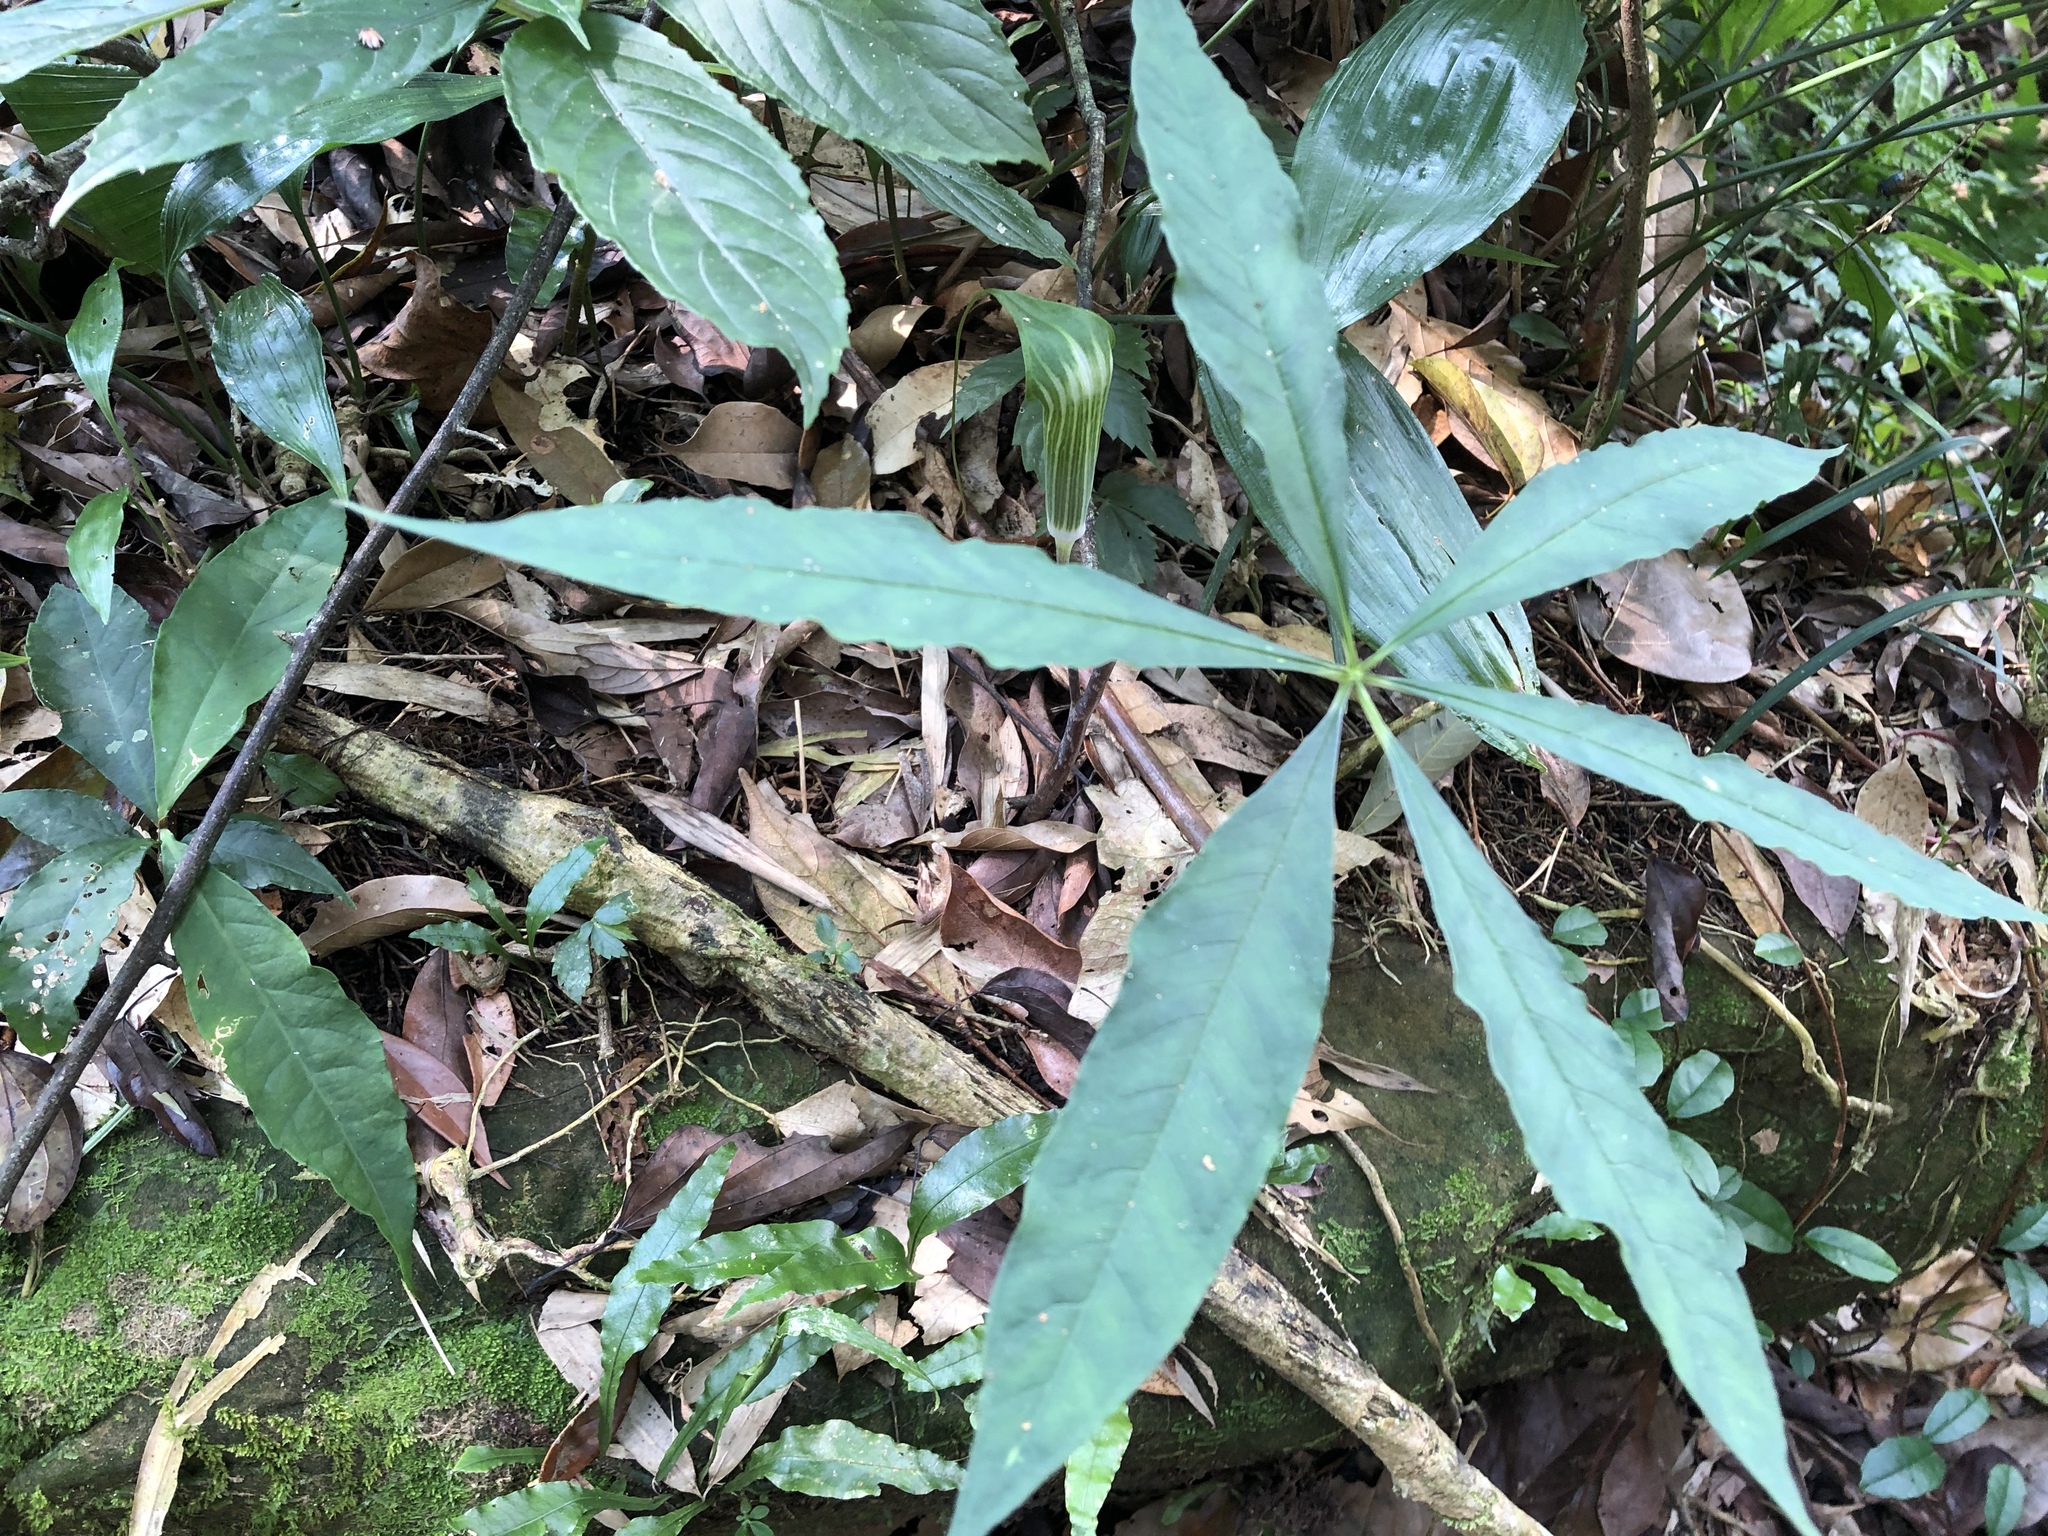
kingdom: Plantae
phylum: Tracheophyta
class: Liliopsida
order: Alismatales
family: Araceae
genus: Arisaema
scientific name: Arisaema formosanum
